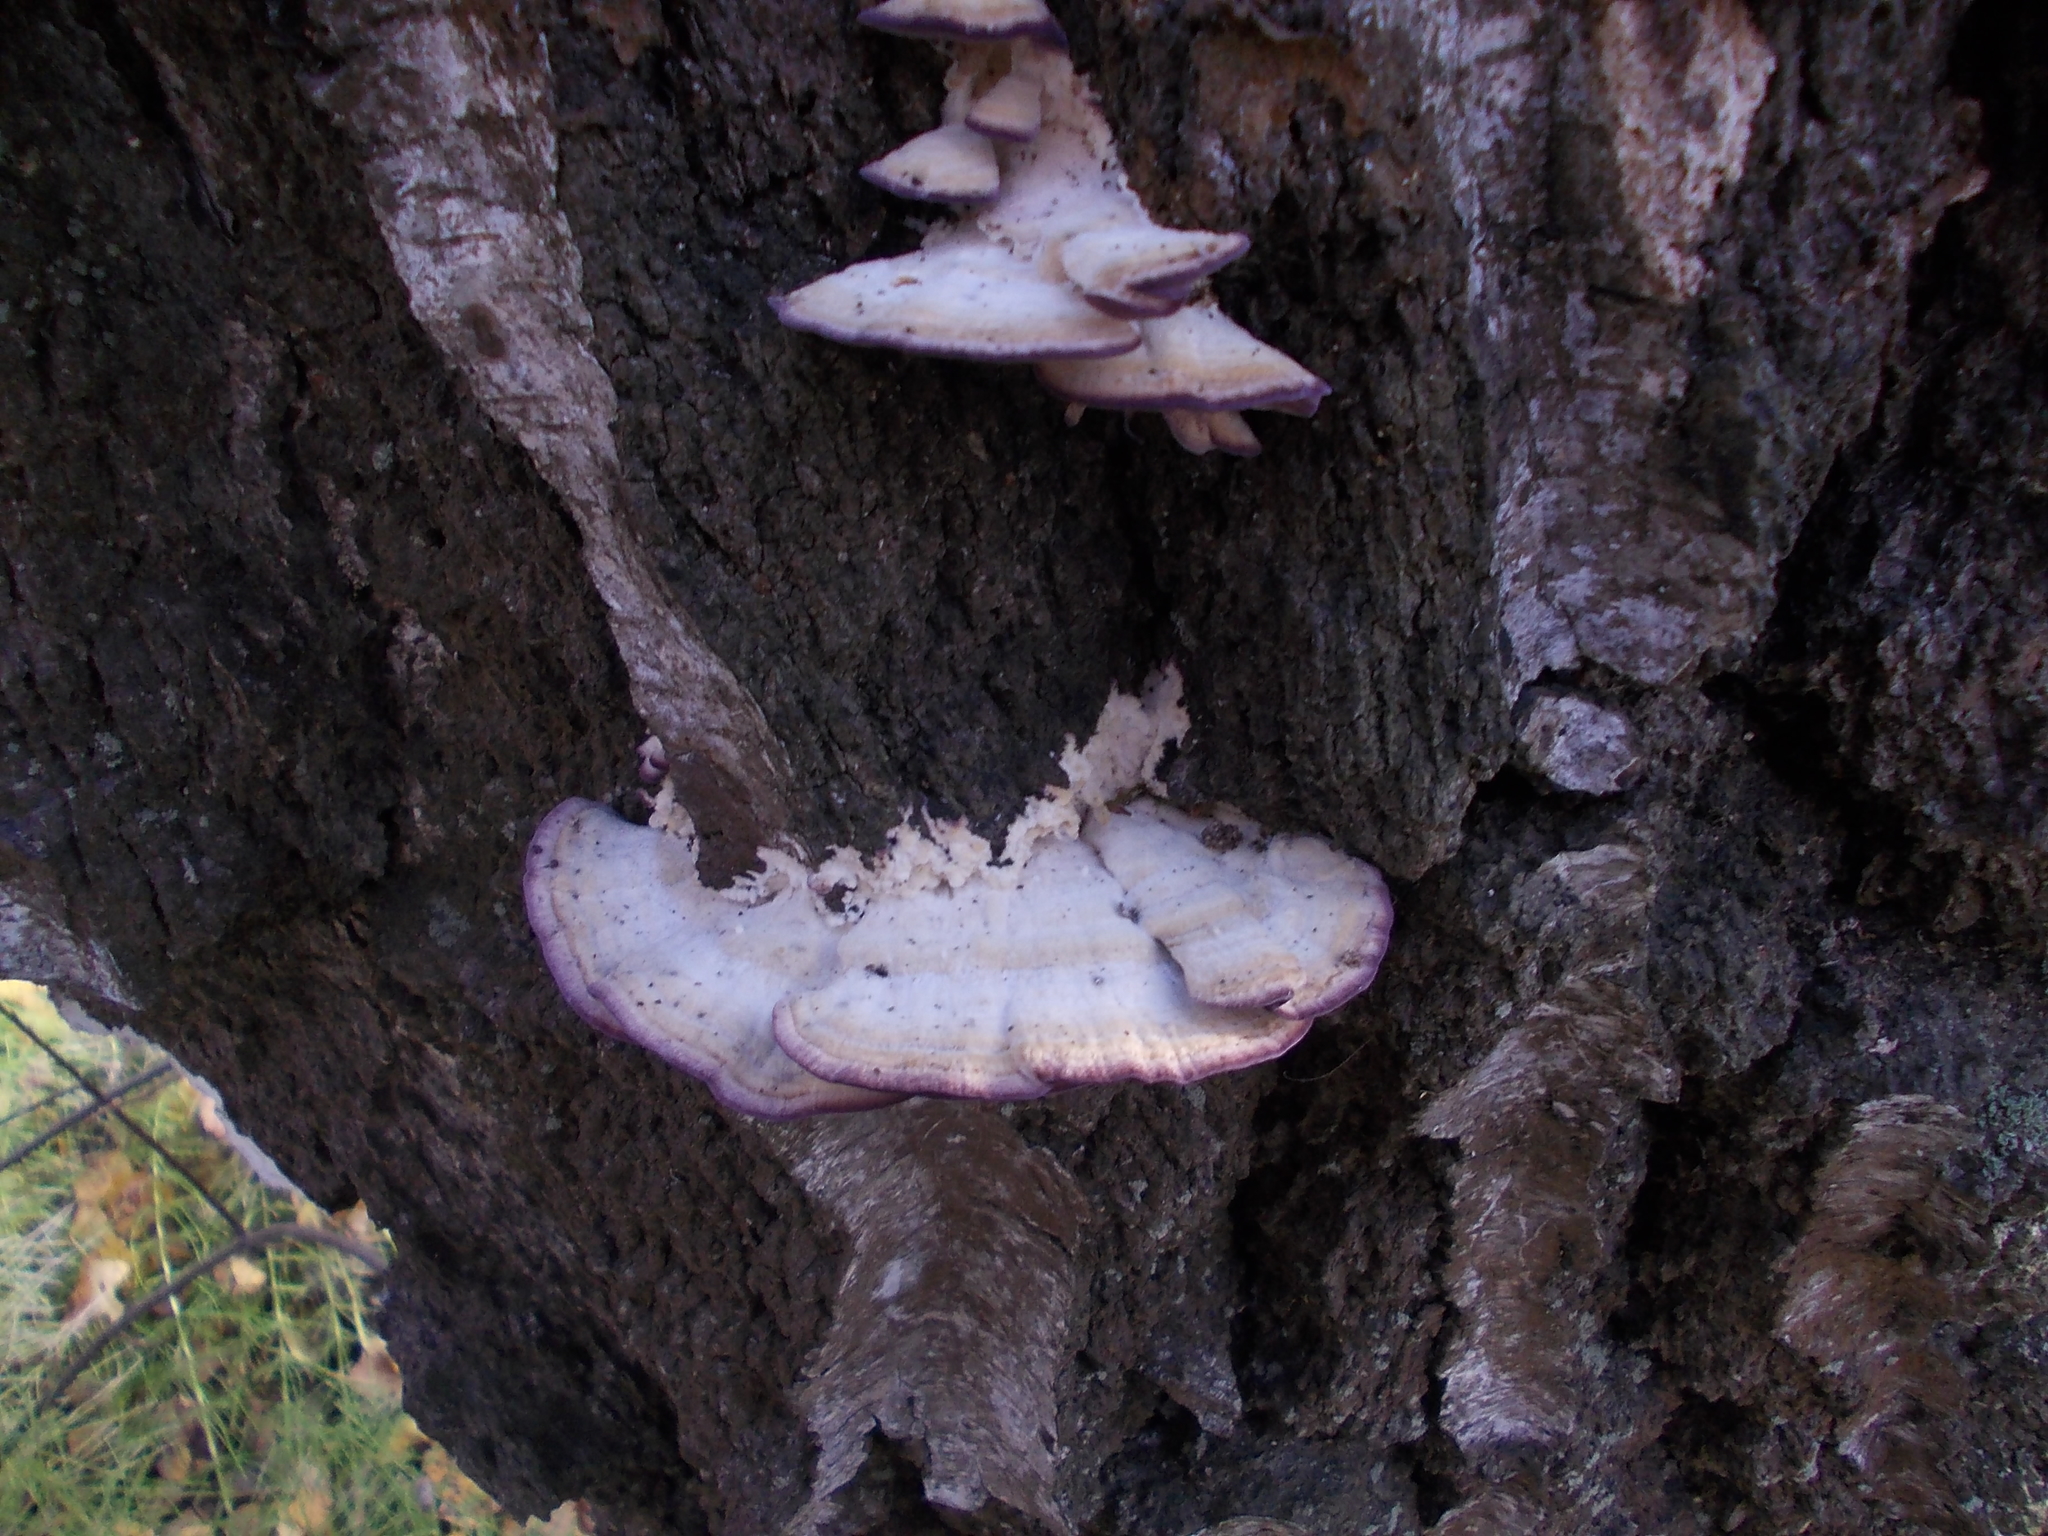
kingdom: Fungi
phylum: Basidiomycota
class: Agaricomycetes
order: Hymenochaetales
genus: Trichaptum
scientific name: Trichaptum biforme
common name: Violet-toothed polypore
